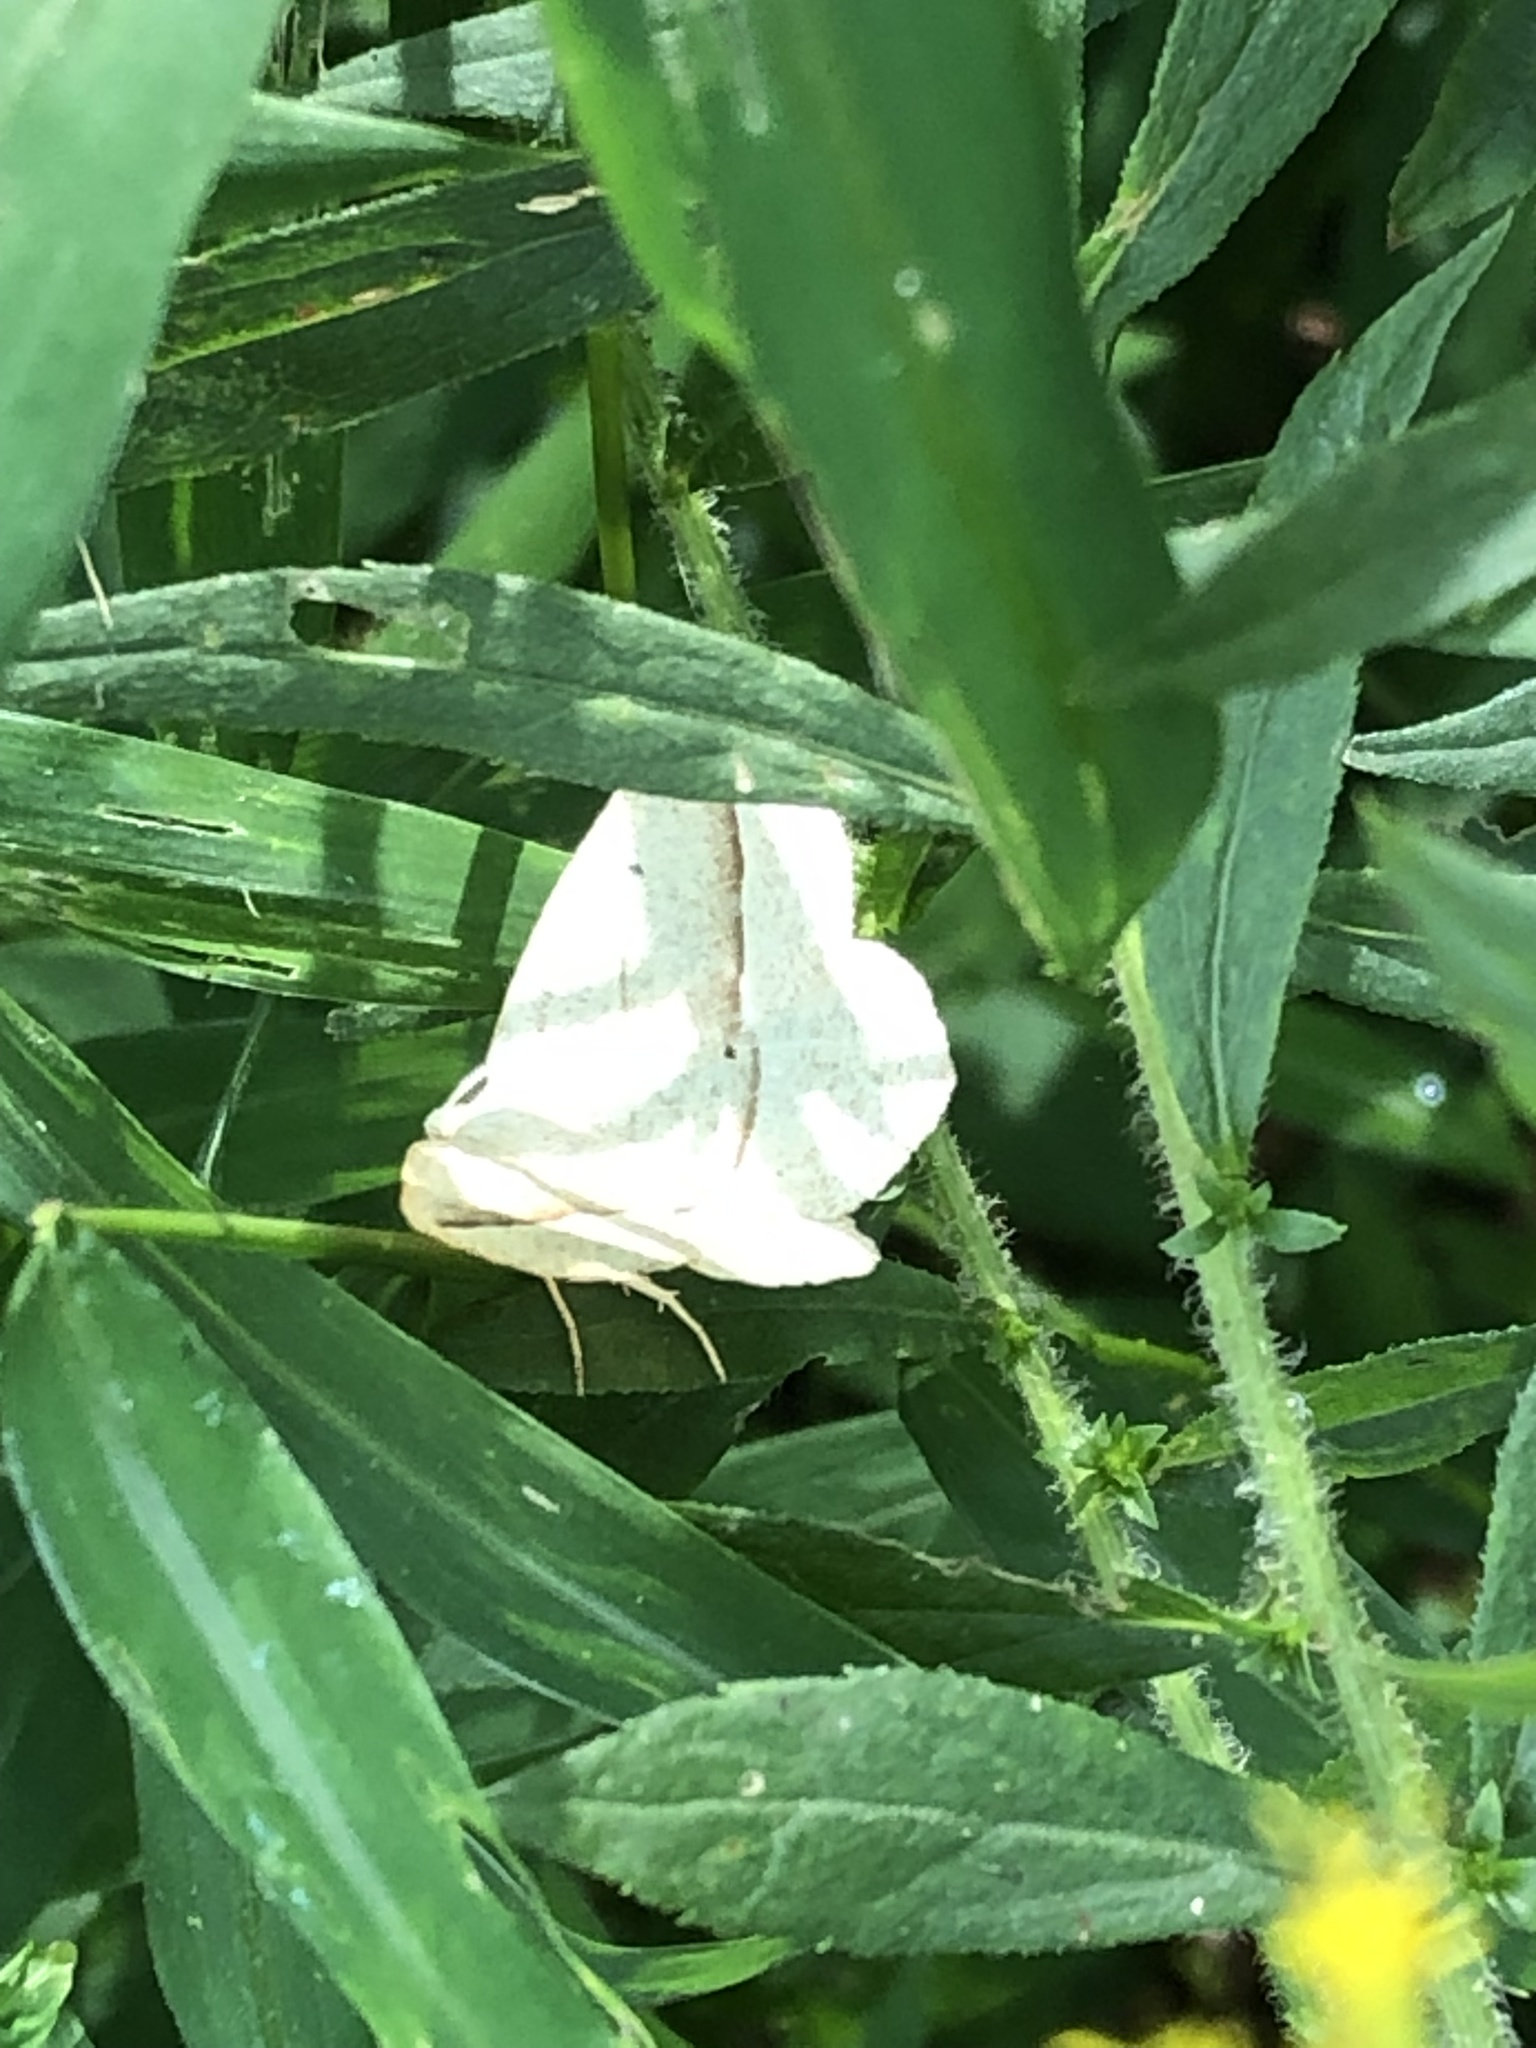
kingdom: Animalia
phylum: Arthropoda
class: Insecta
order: Lepidoptera
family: Geometridae
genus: Eusarca
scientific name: Eusarca confusaria
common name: Confused eusarca
